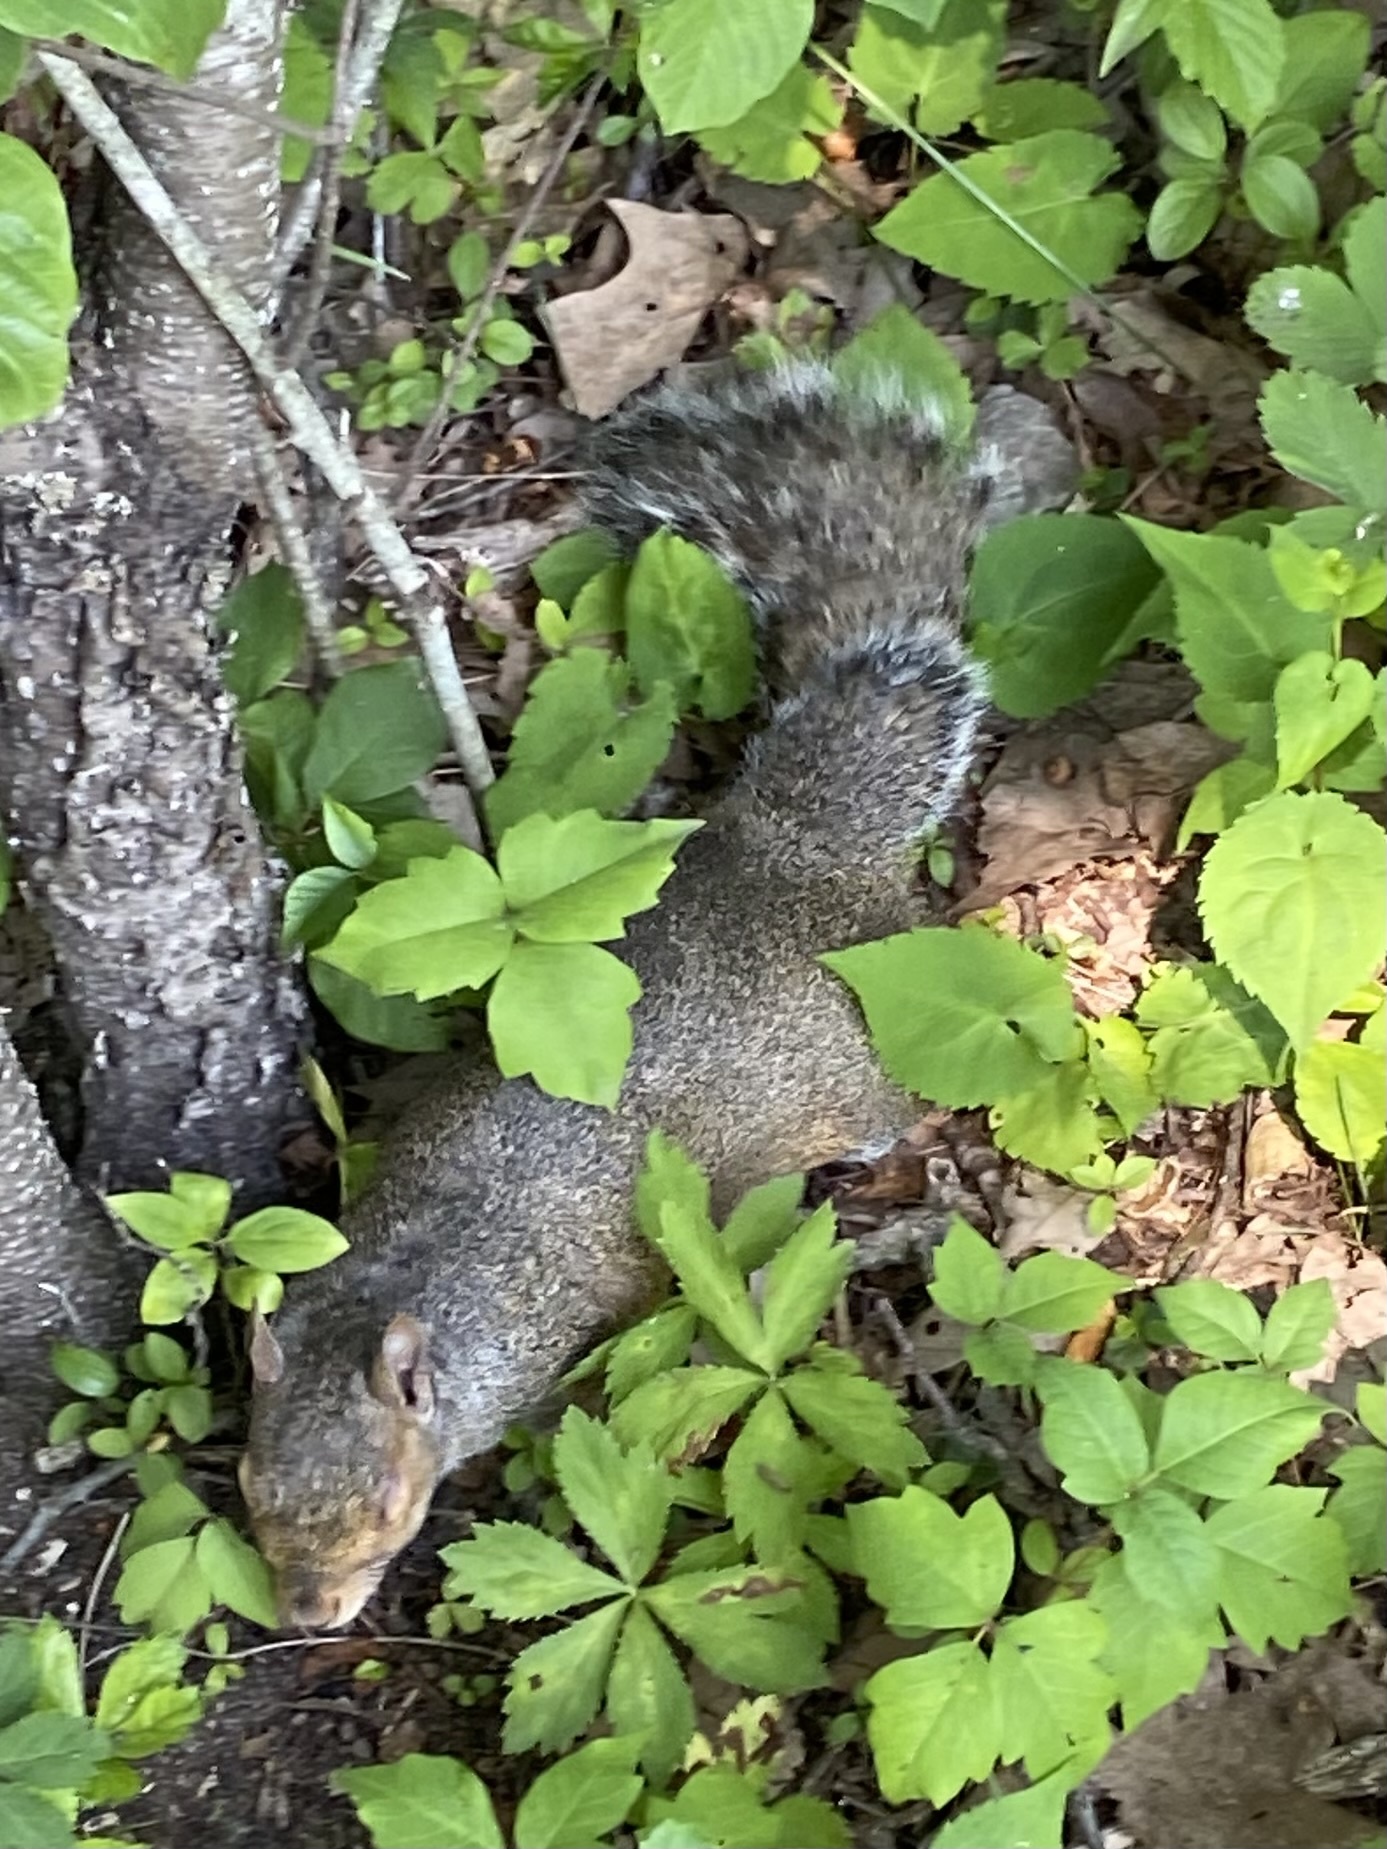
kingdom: Animalia
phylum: Chordata
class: Mammalia
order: Rodentia
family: Sciuridae
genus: Sciurus
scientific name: Sciurus carolinensis
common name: Eastern gray squirrel
